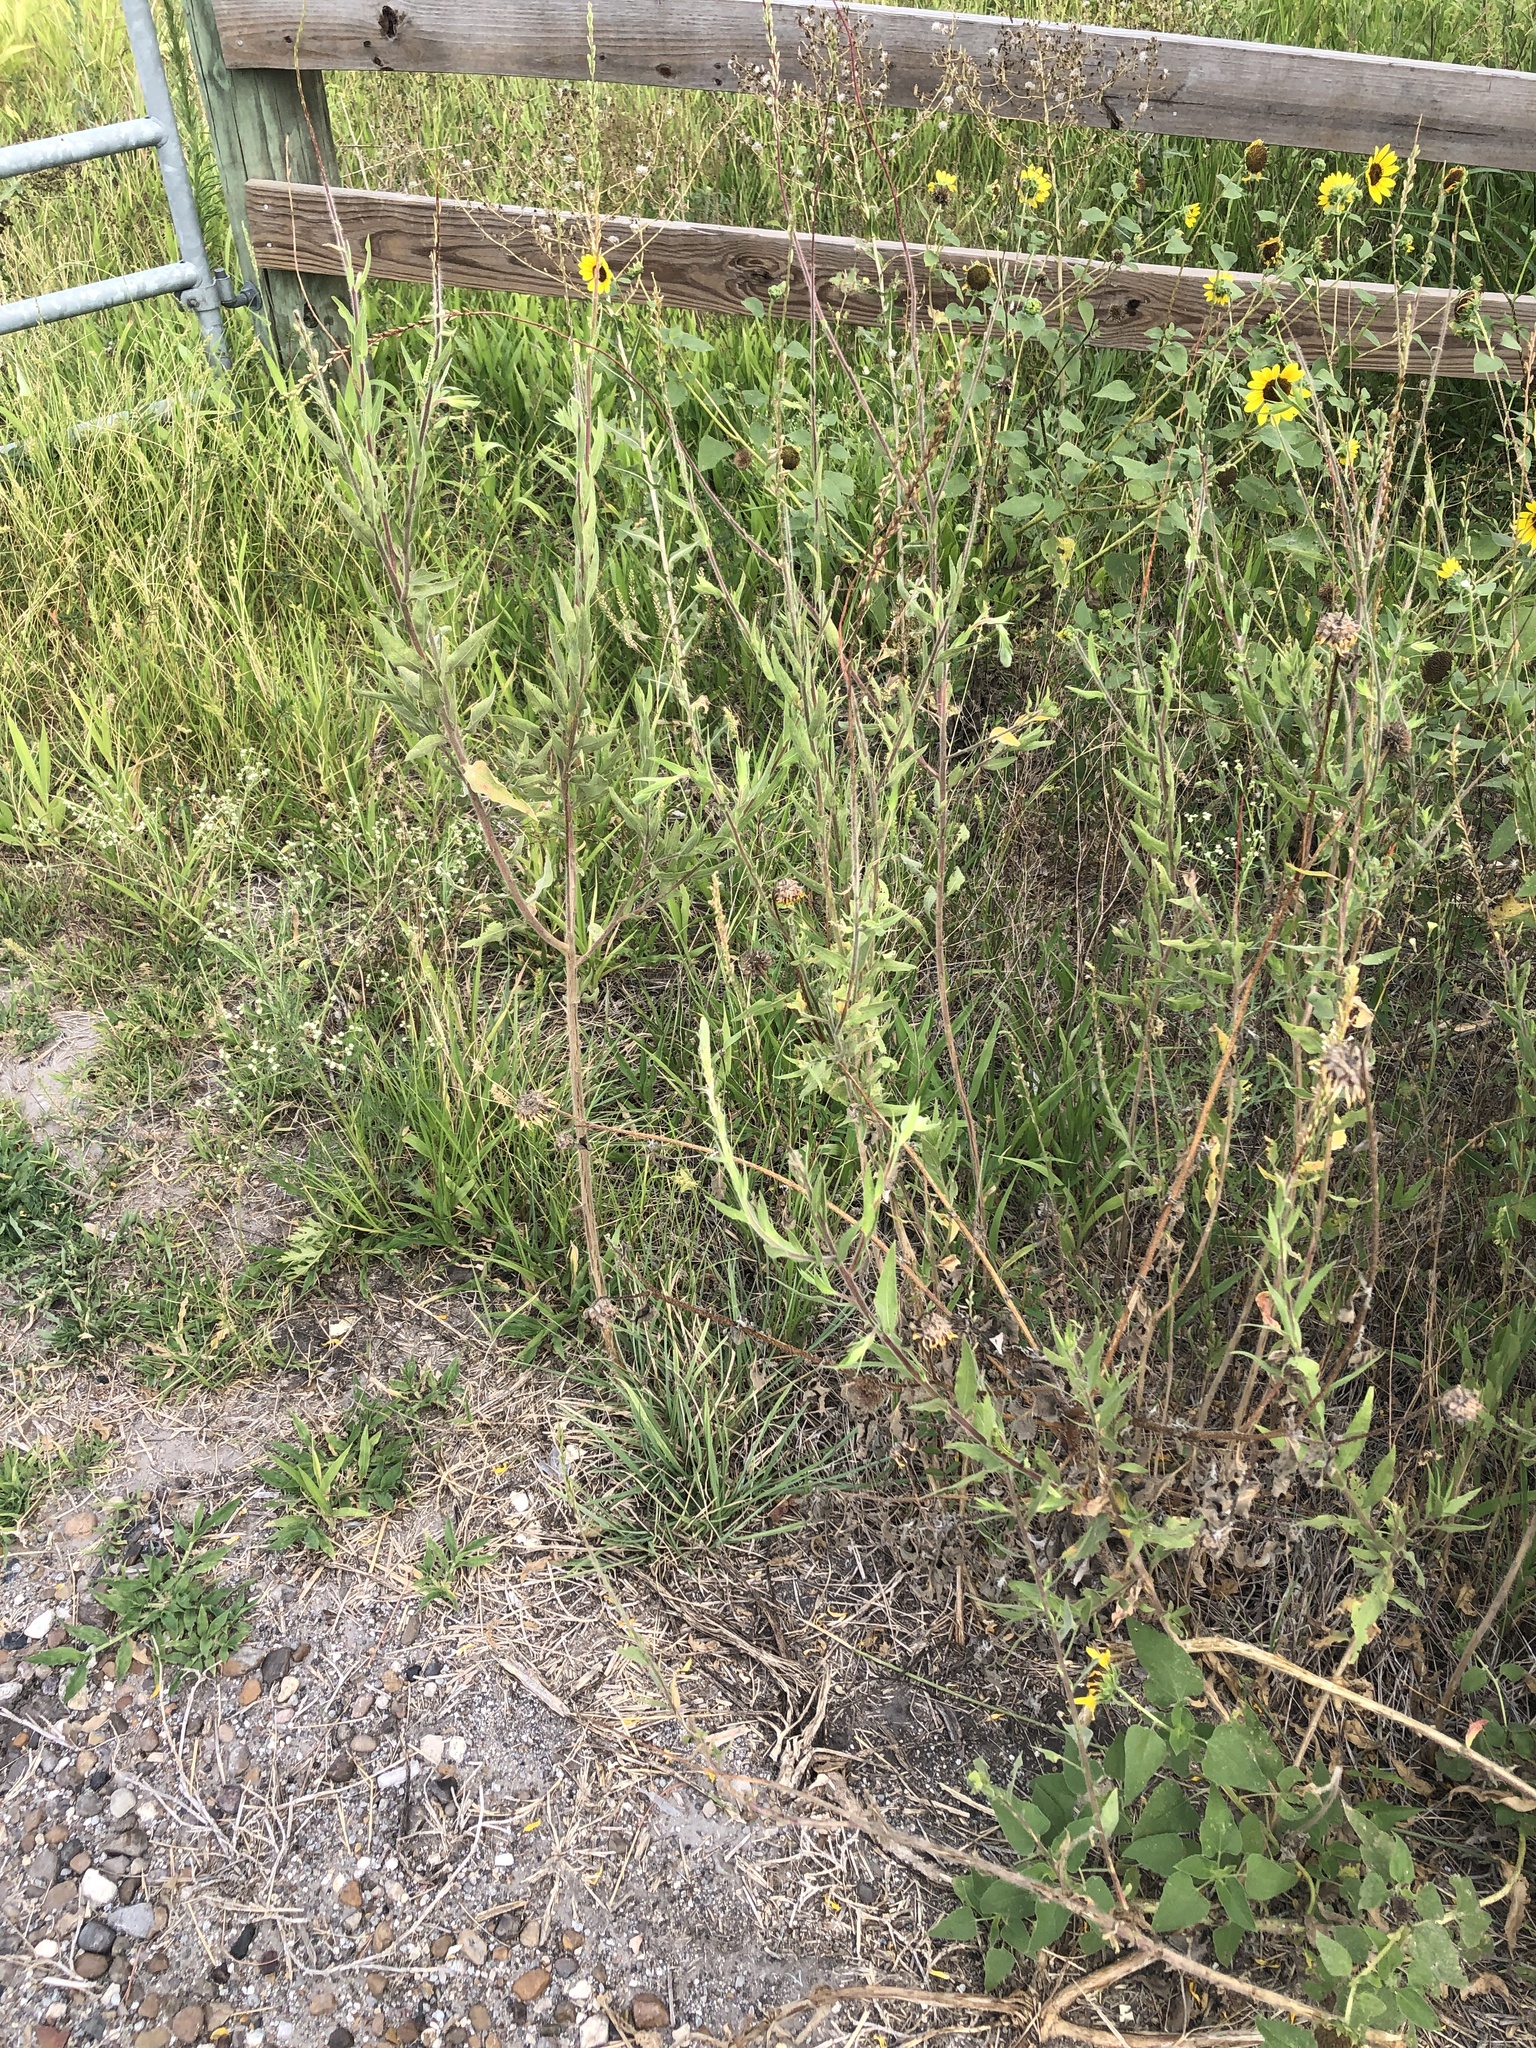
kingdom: Plantae
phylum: Tracheophyta
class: Magnoliopsida
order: Myrtales
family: Onagraceae
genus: Oenothera
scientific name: Oenothera curtiflora
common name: Velvetweed
